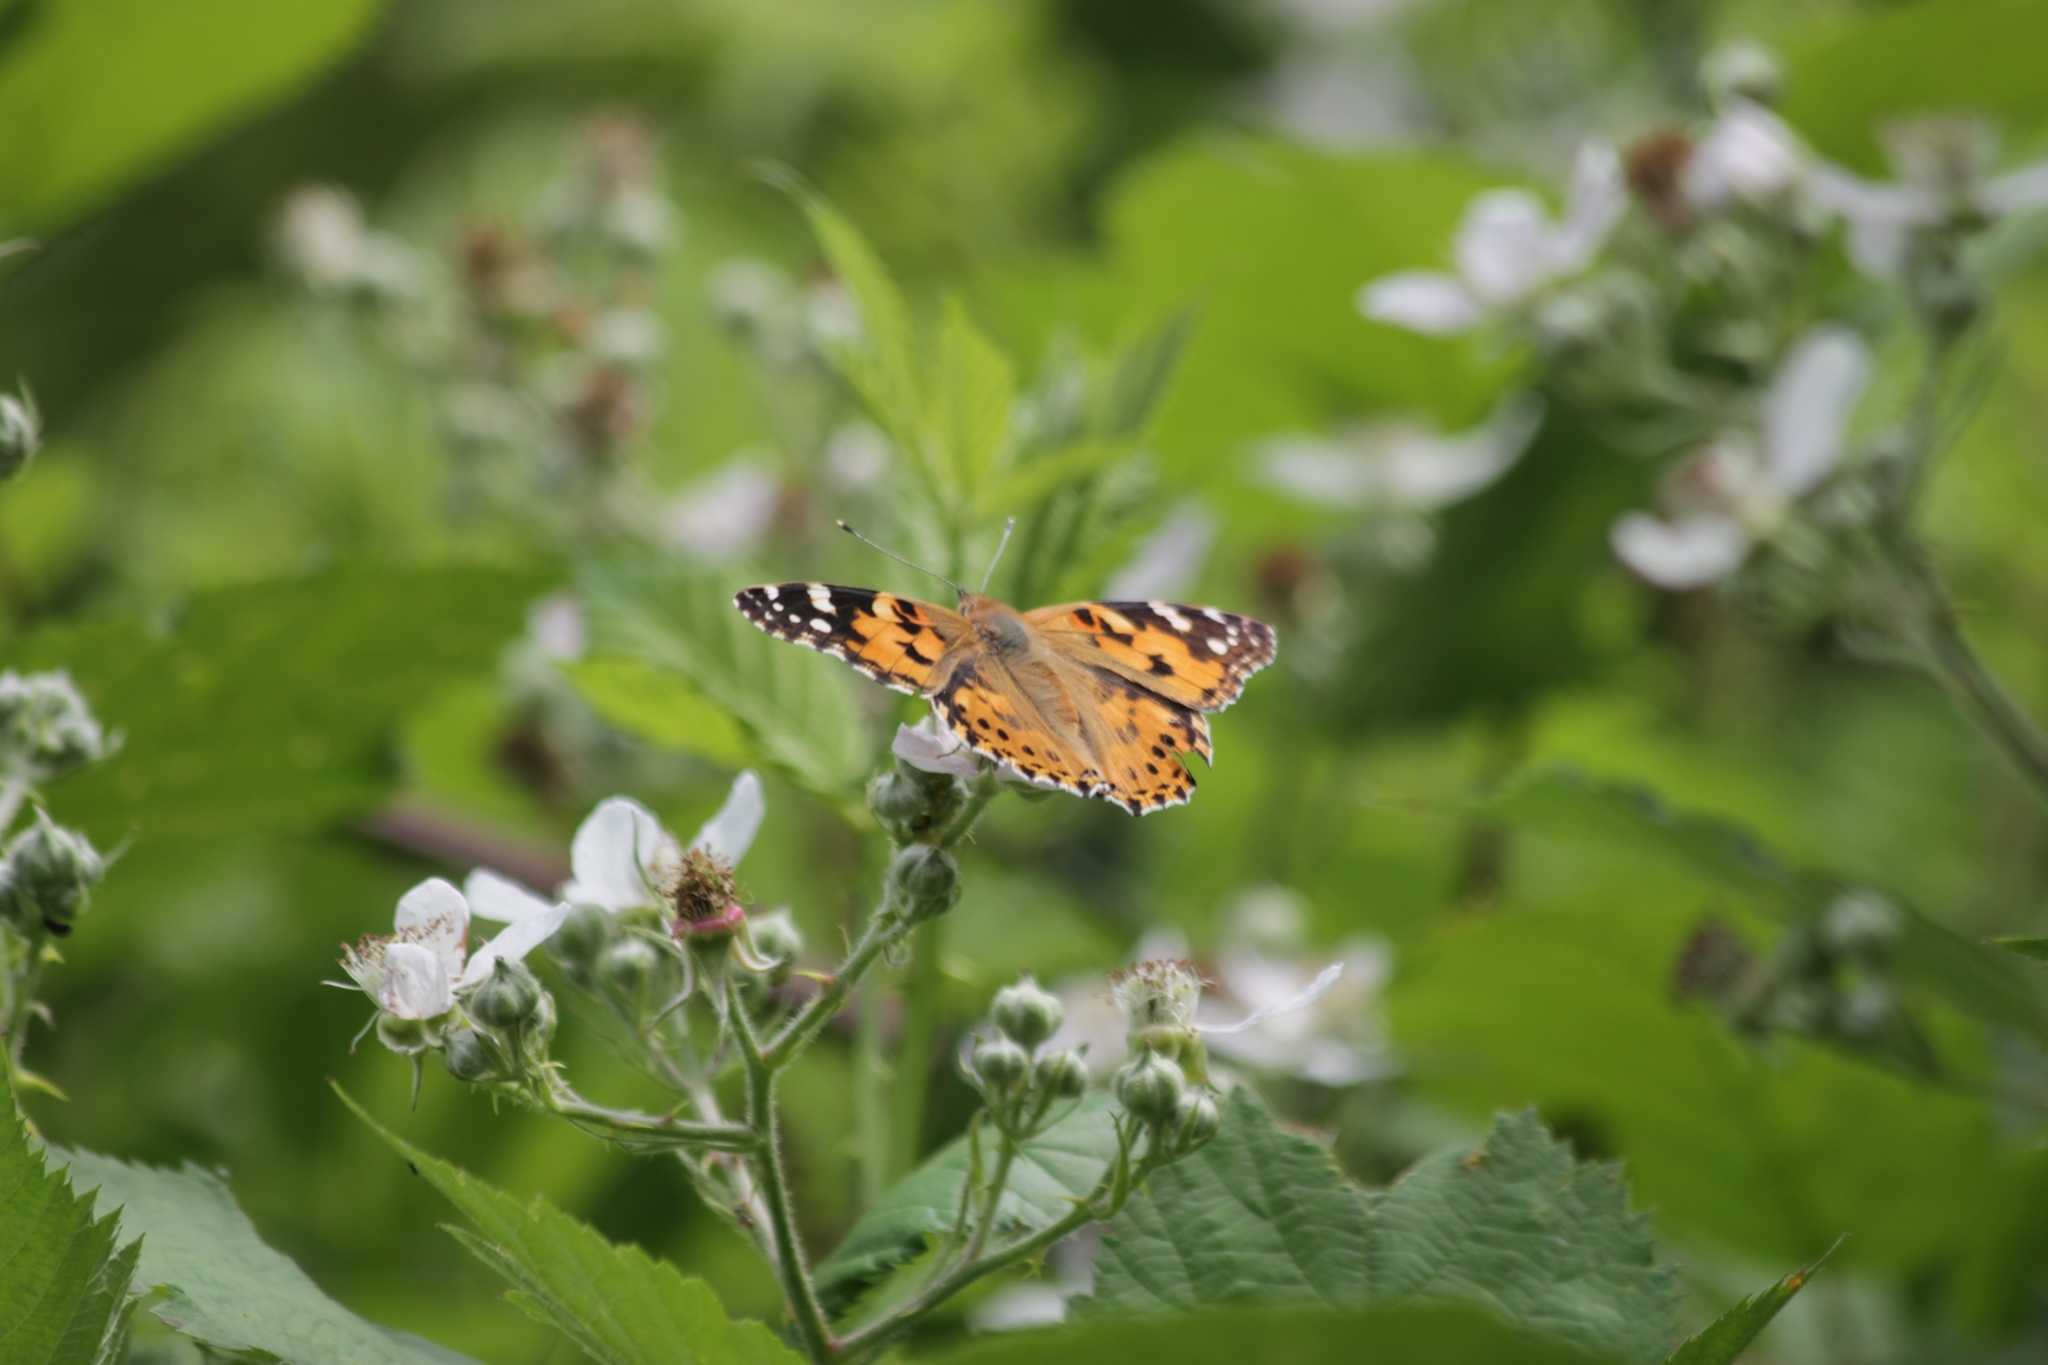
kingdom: Animalia
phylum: Arthropoda
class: Insecta
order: Lepidoptera
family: Nymphalidae
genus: Vanessa
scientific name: Vanessa cardui
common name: Painted lady
